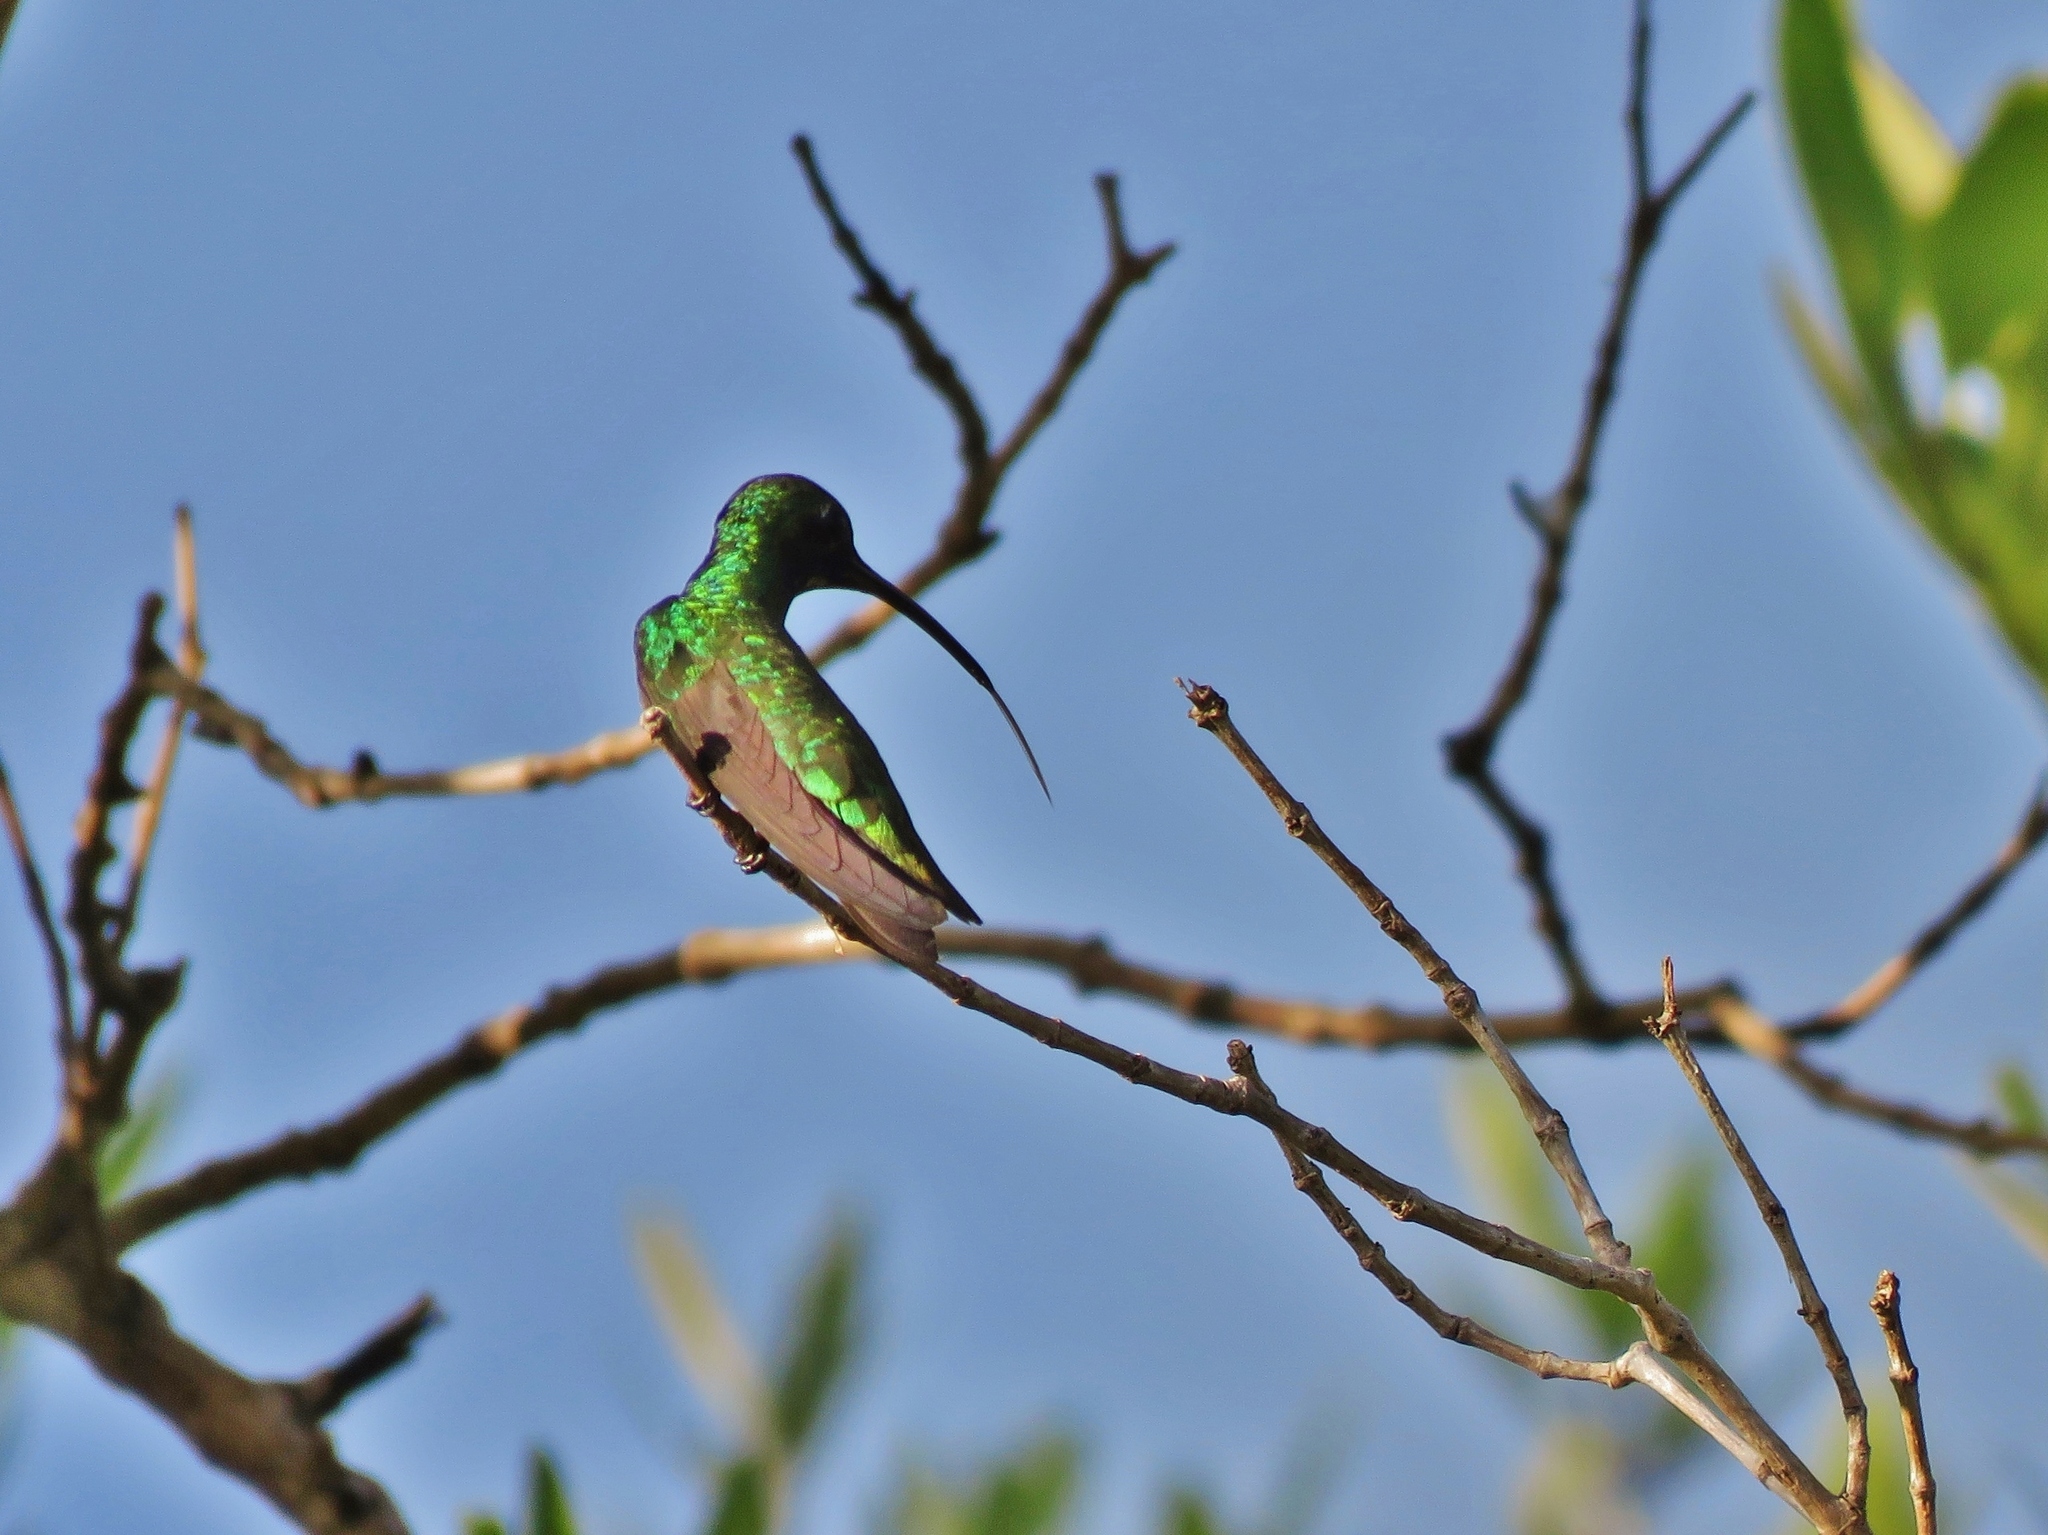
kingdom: Animalia
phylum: Chordata
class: Aves
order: Apodiformes
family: Trochilidae
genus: Anthracothorax
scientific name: Anthracothorax prevostii
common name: Green-breasted mango
